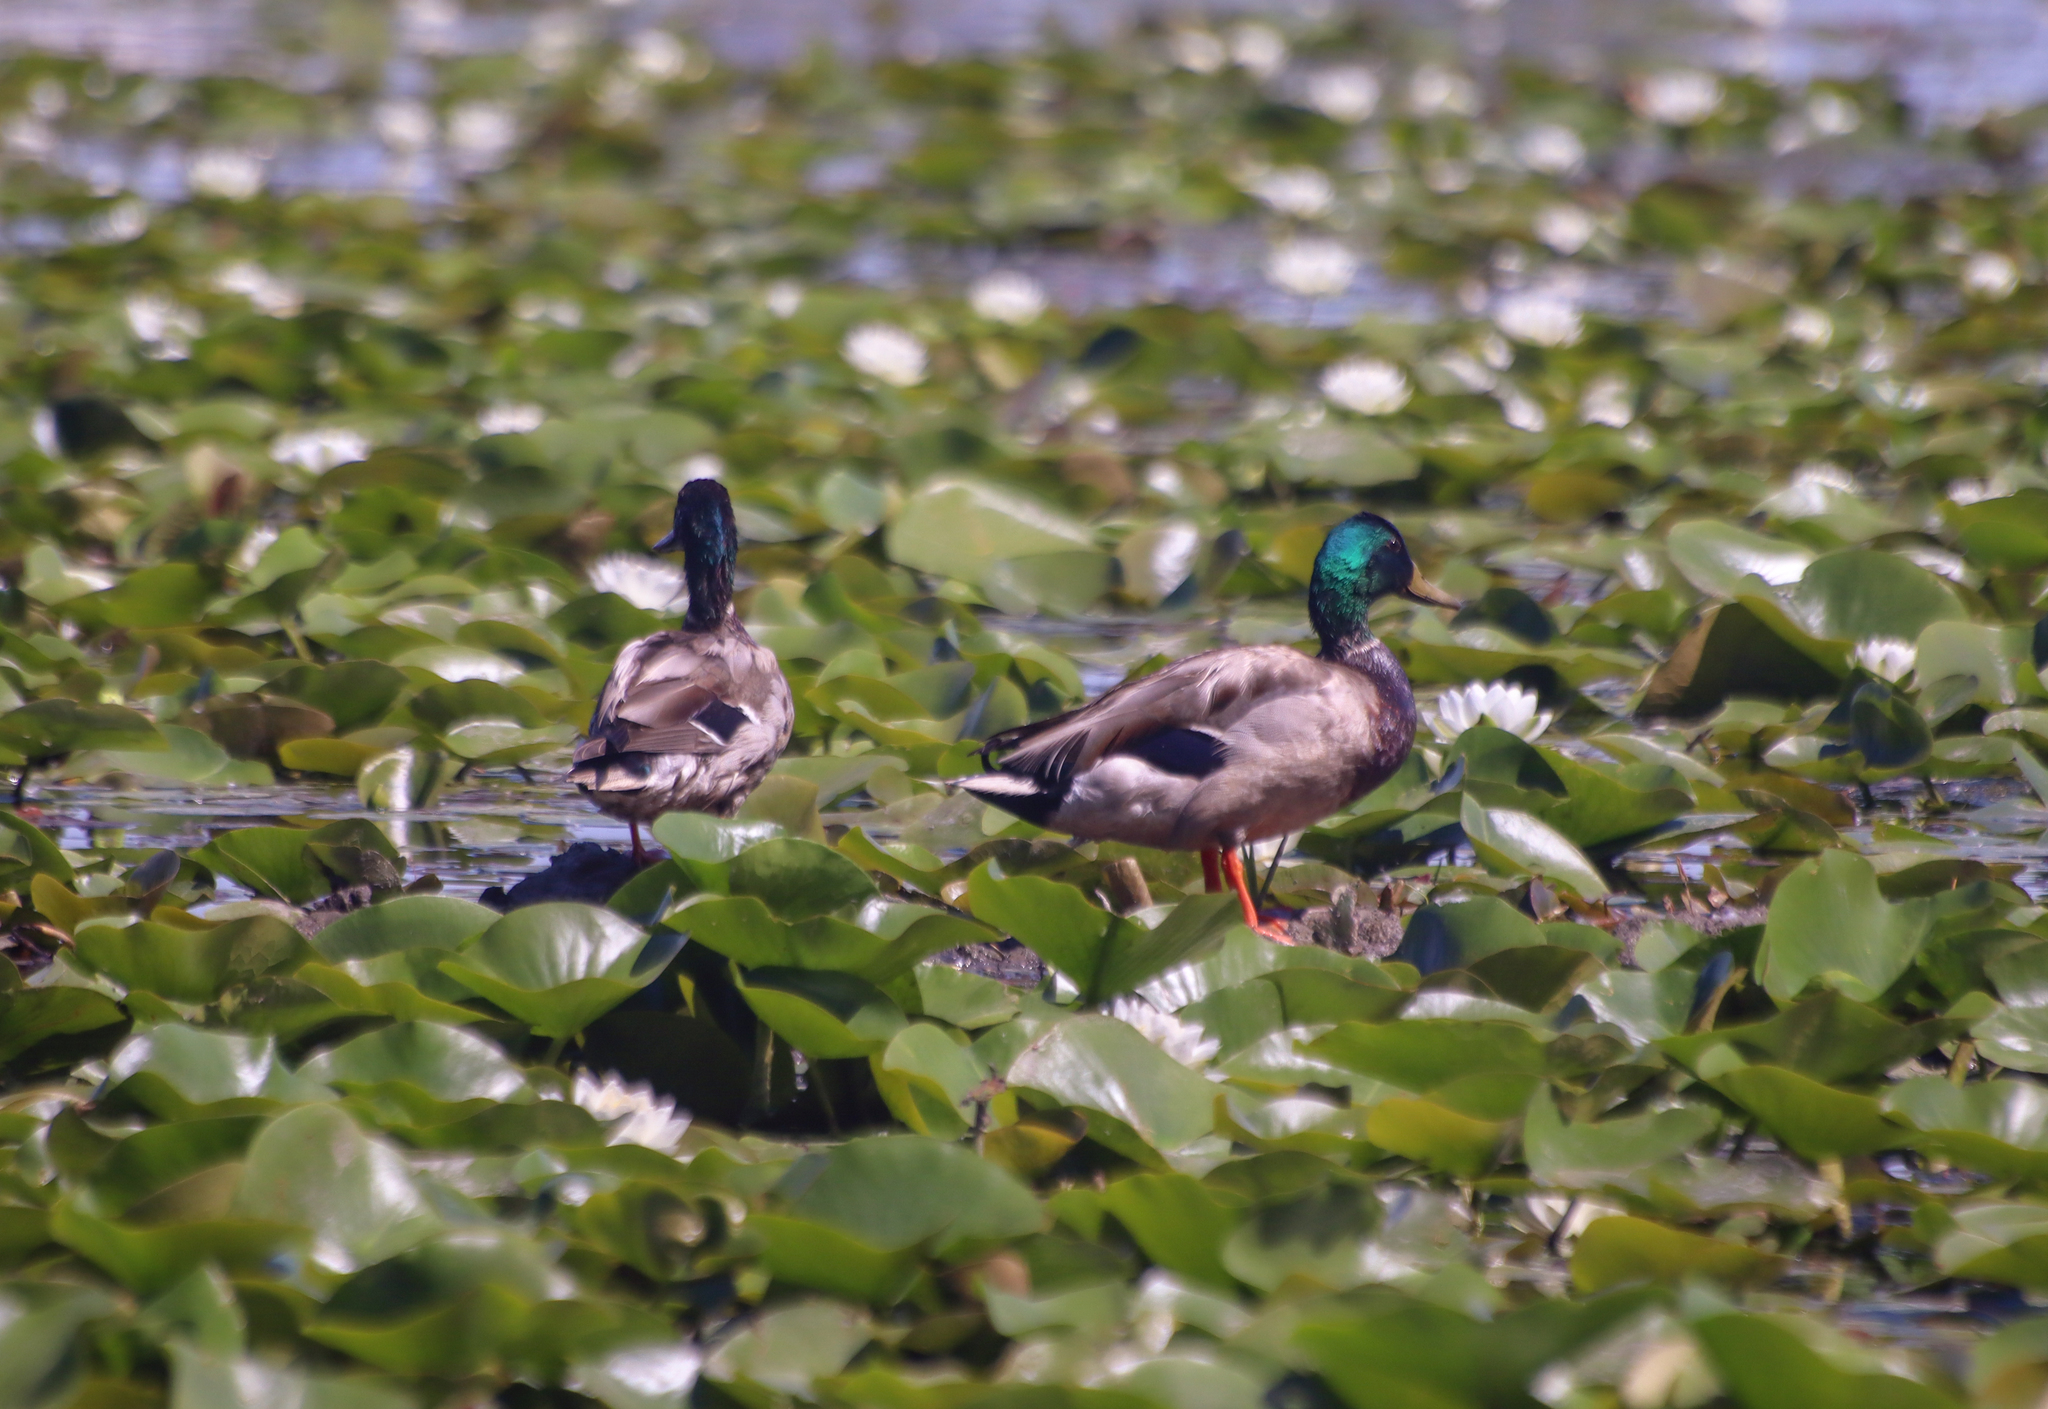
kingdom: Animalia
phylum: Chordata
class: Aves
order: Anseriformes
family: Anatidae
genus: Anas
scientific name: Anas platyrhynchos
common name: Mallard
